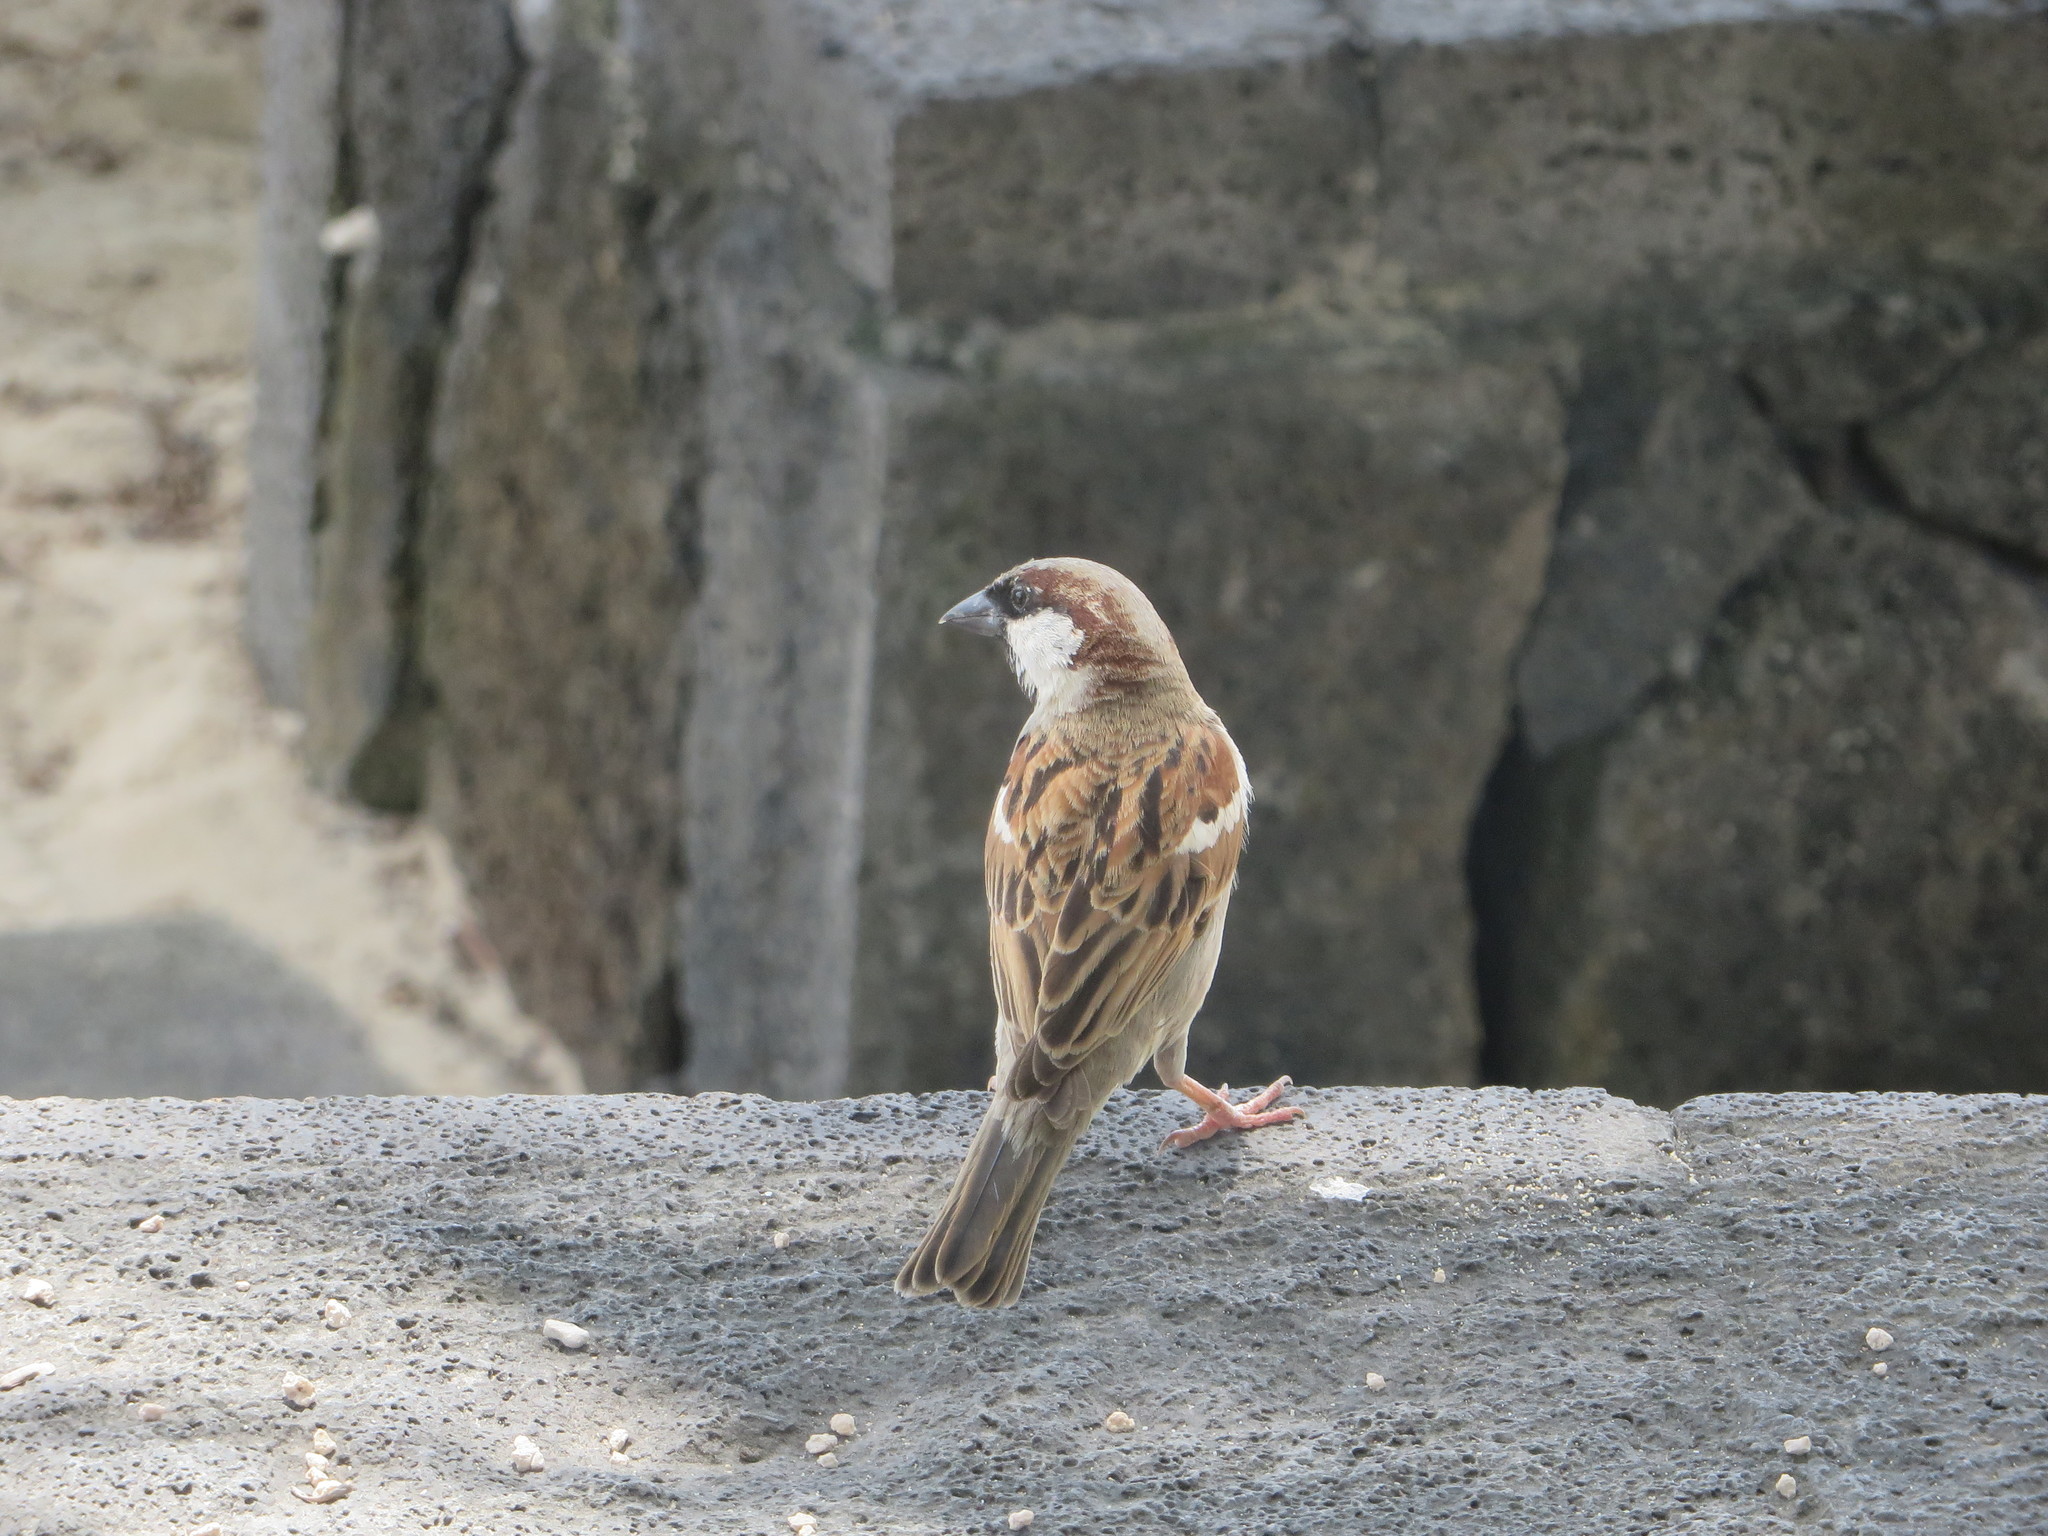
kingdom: Animalia
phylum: Chordata
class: Aves
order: Passeriformes
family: Passeridae
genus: Passer
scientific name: Passer domesticus
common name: House sparrow
